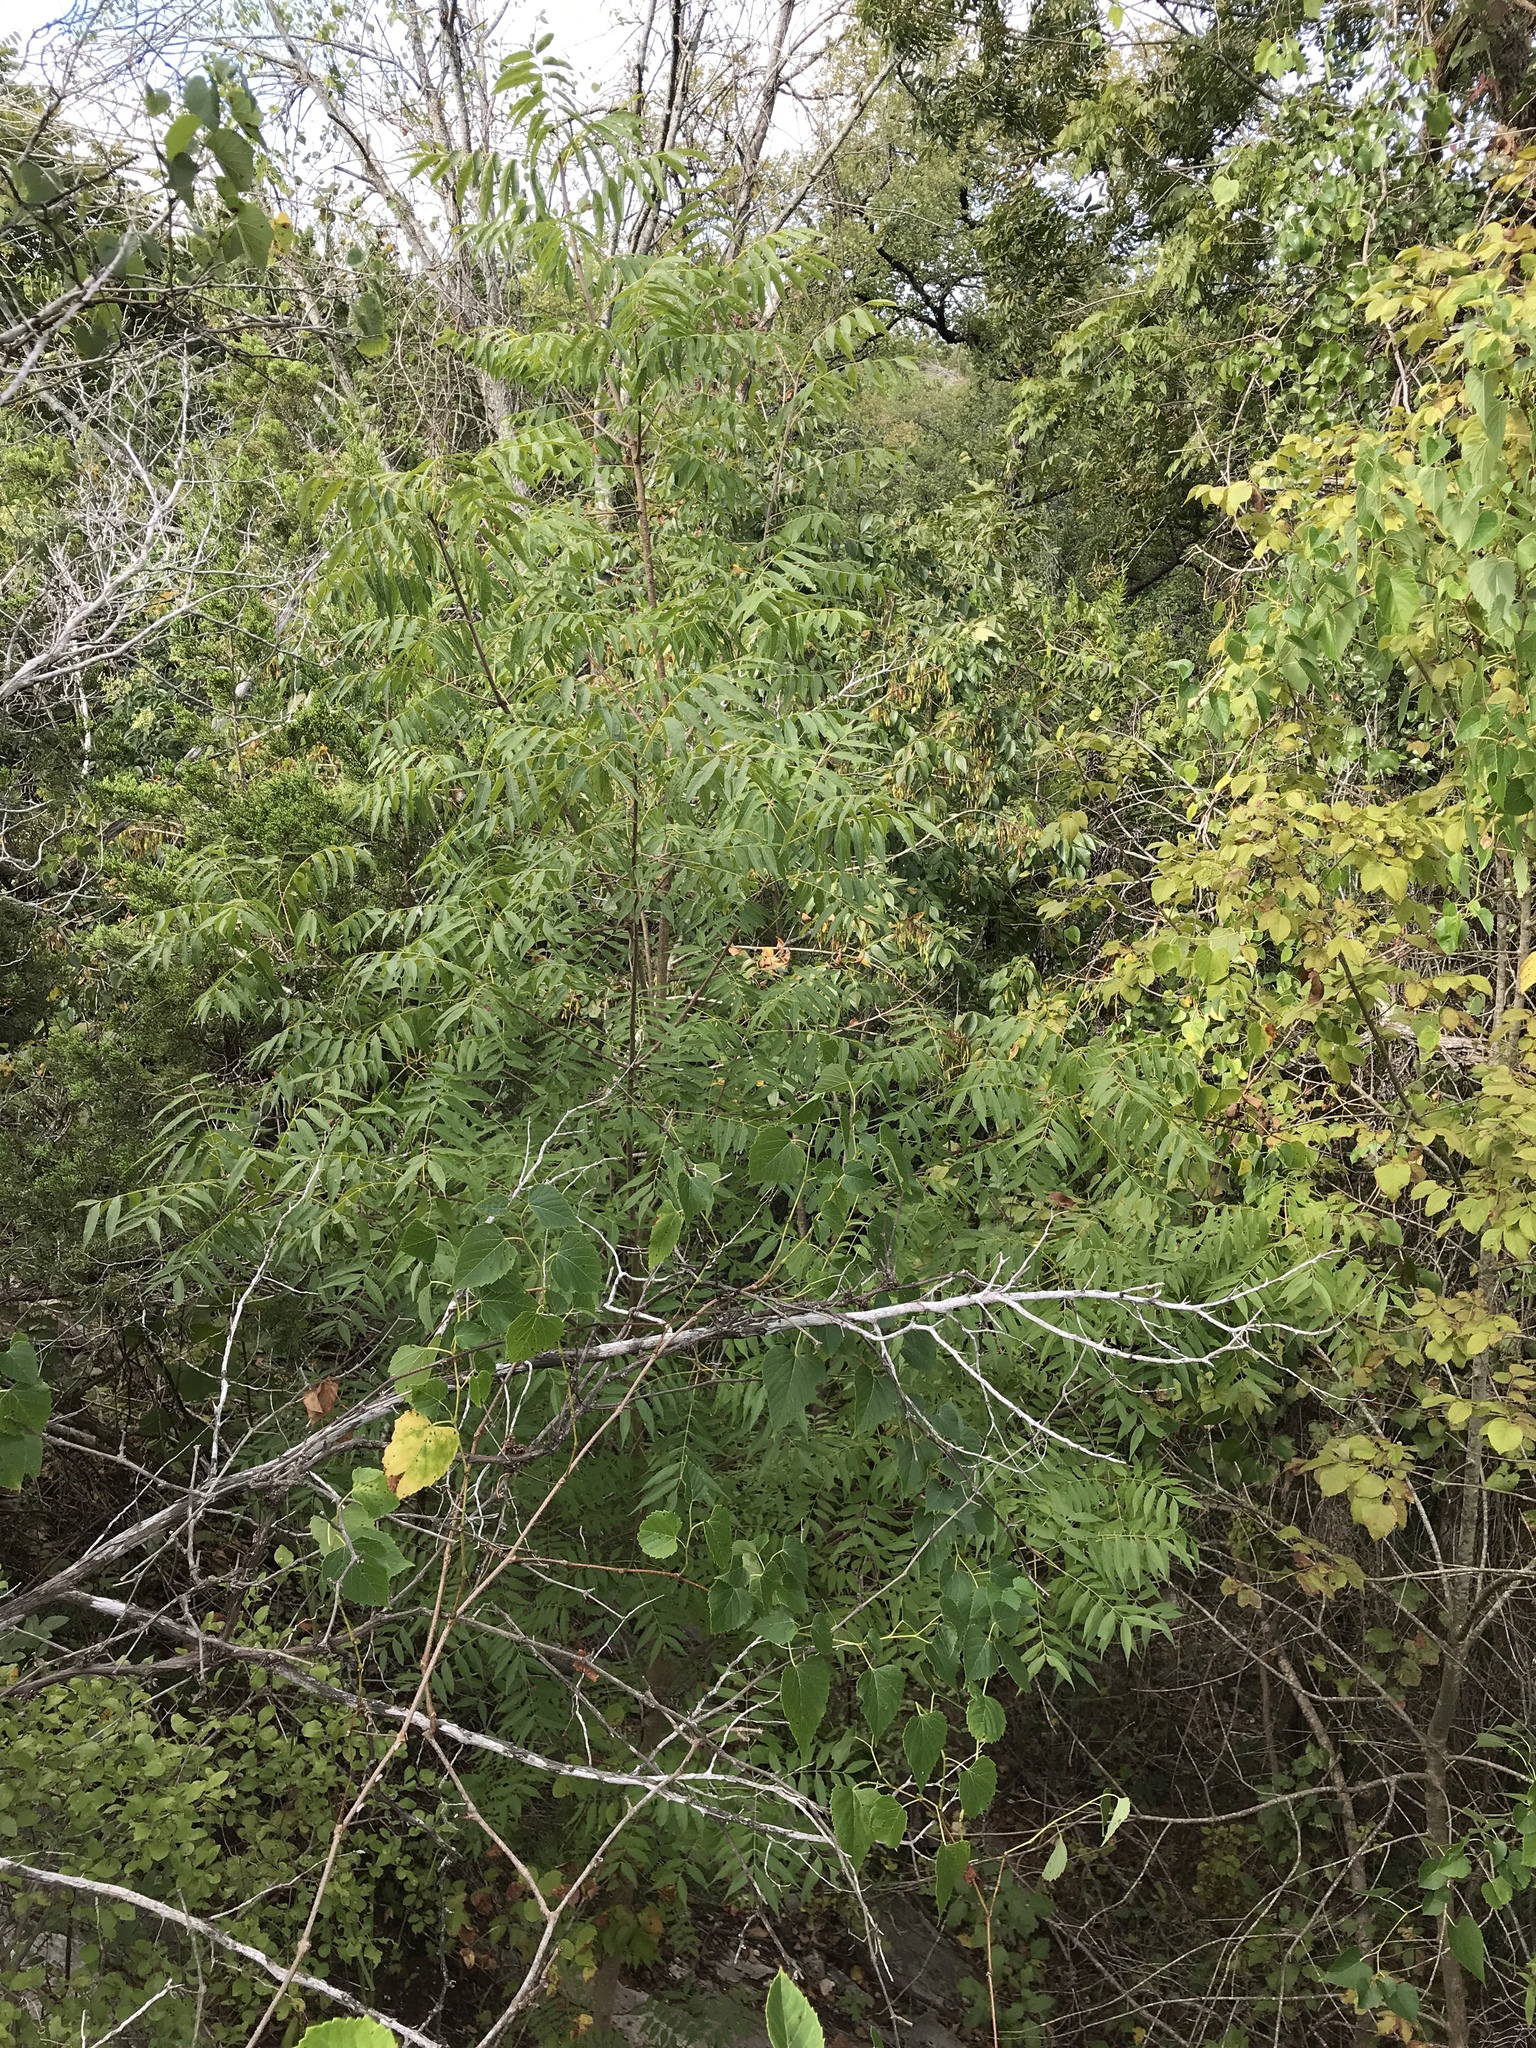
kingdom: Plantae
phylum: Tracheophyta
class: Magnoliopsida
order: Sapindales
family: Anacardiaceae
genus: Pistacia
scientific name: Pistacia chinensis
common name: Chinese pistache
